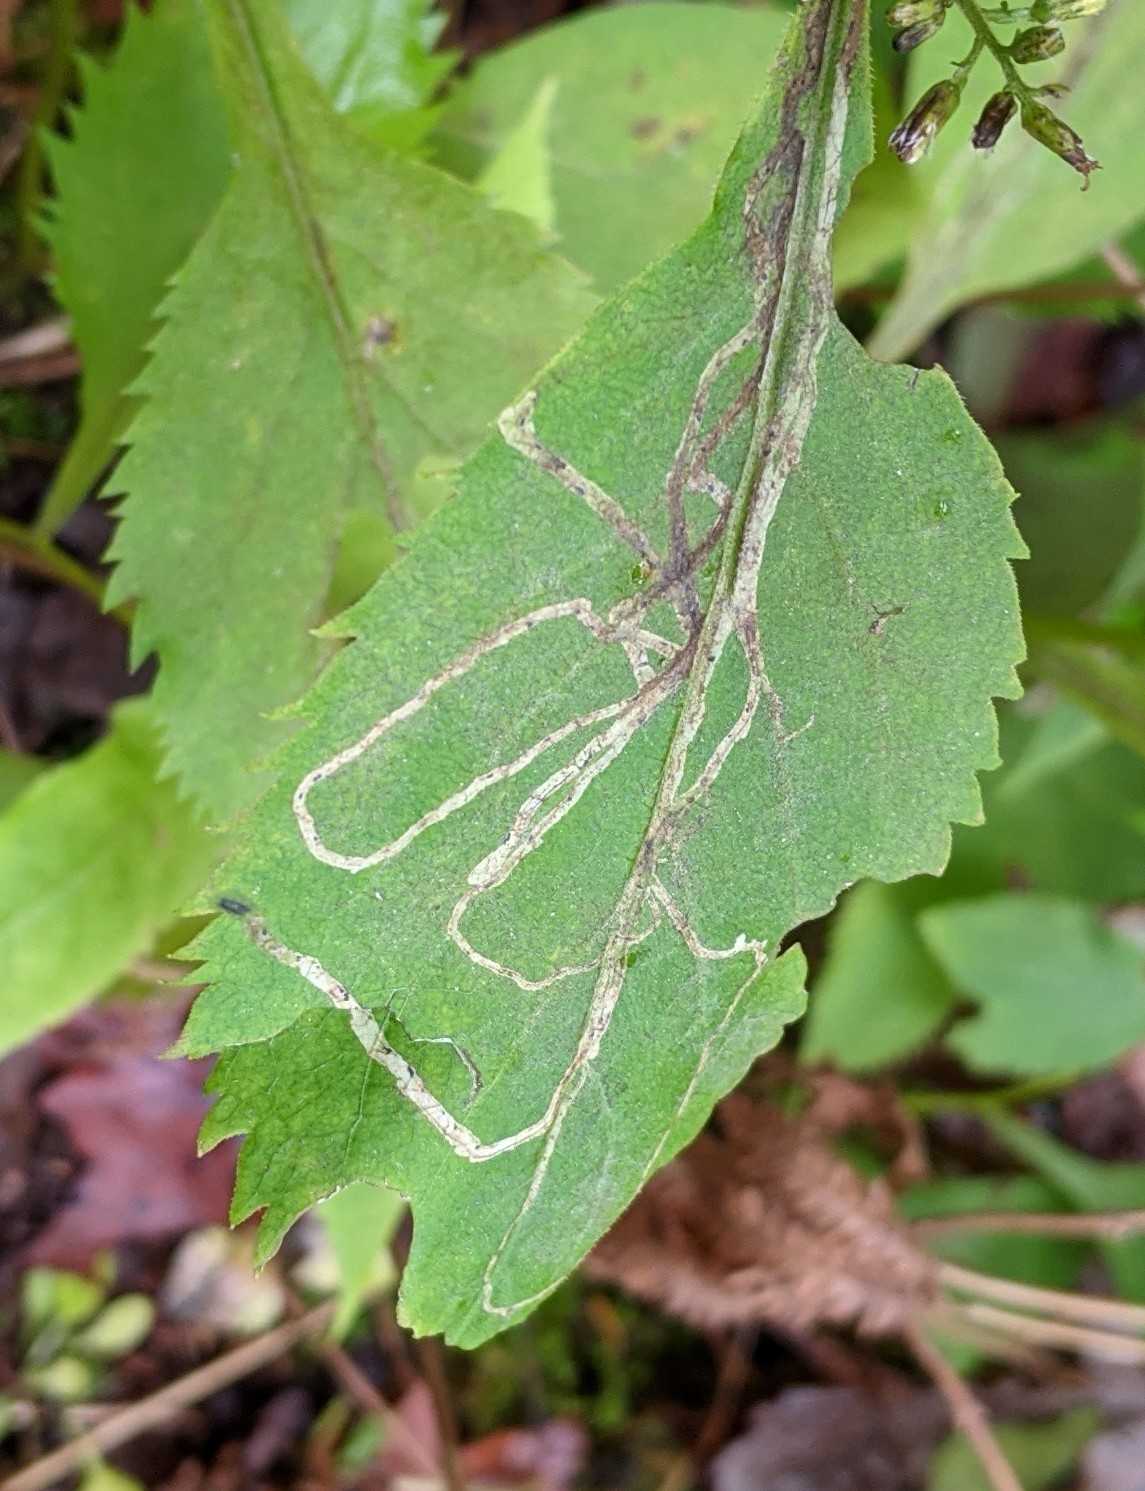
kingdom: Animalia
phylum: Arthropoda
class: Insecta
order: Diptera
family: Agromyzidae
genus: Ophiomyia
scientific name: Ophiomyia maura
